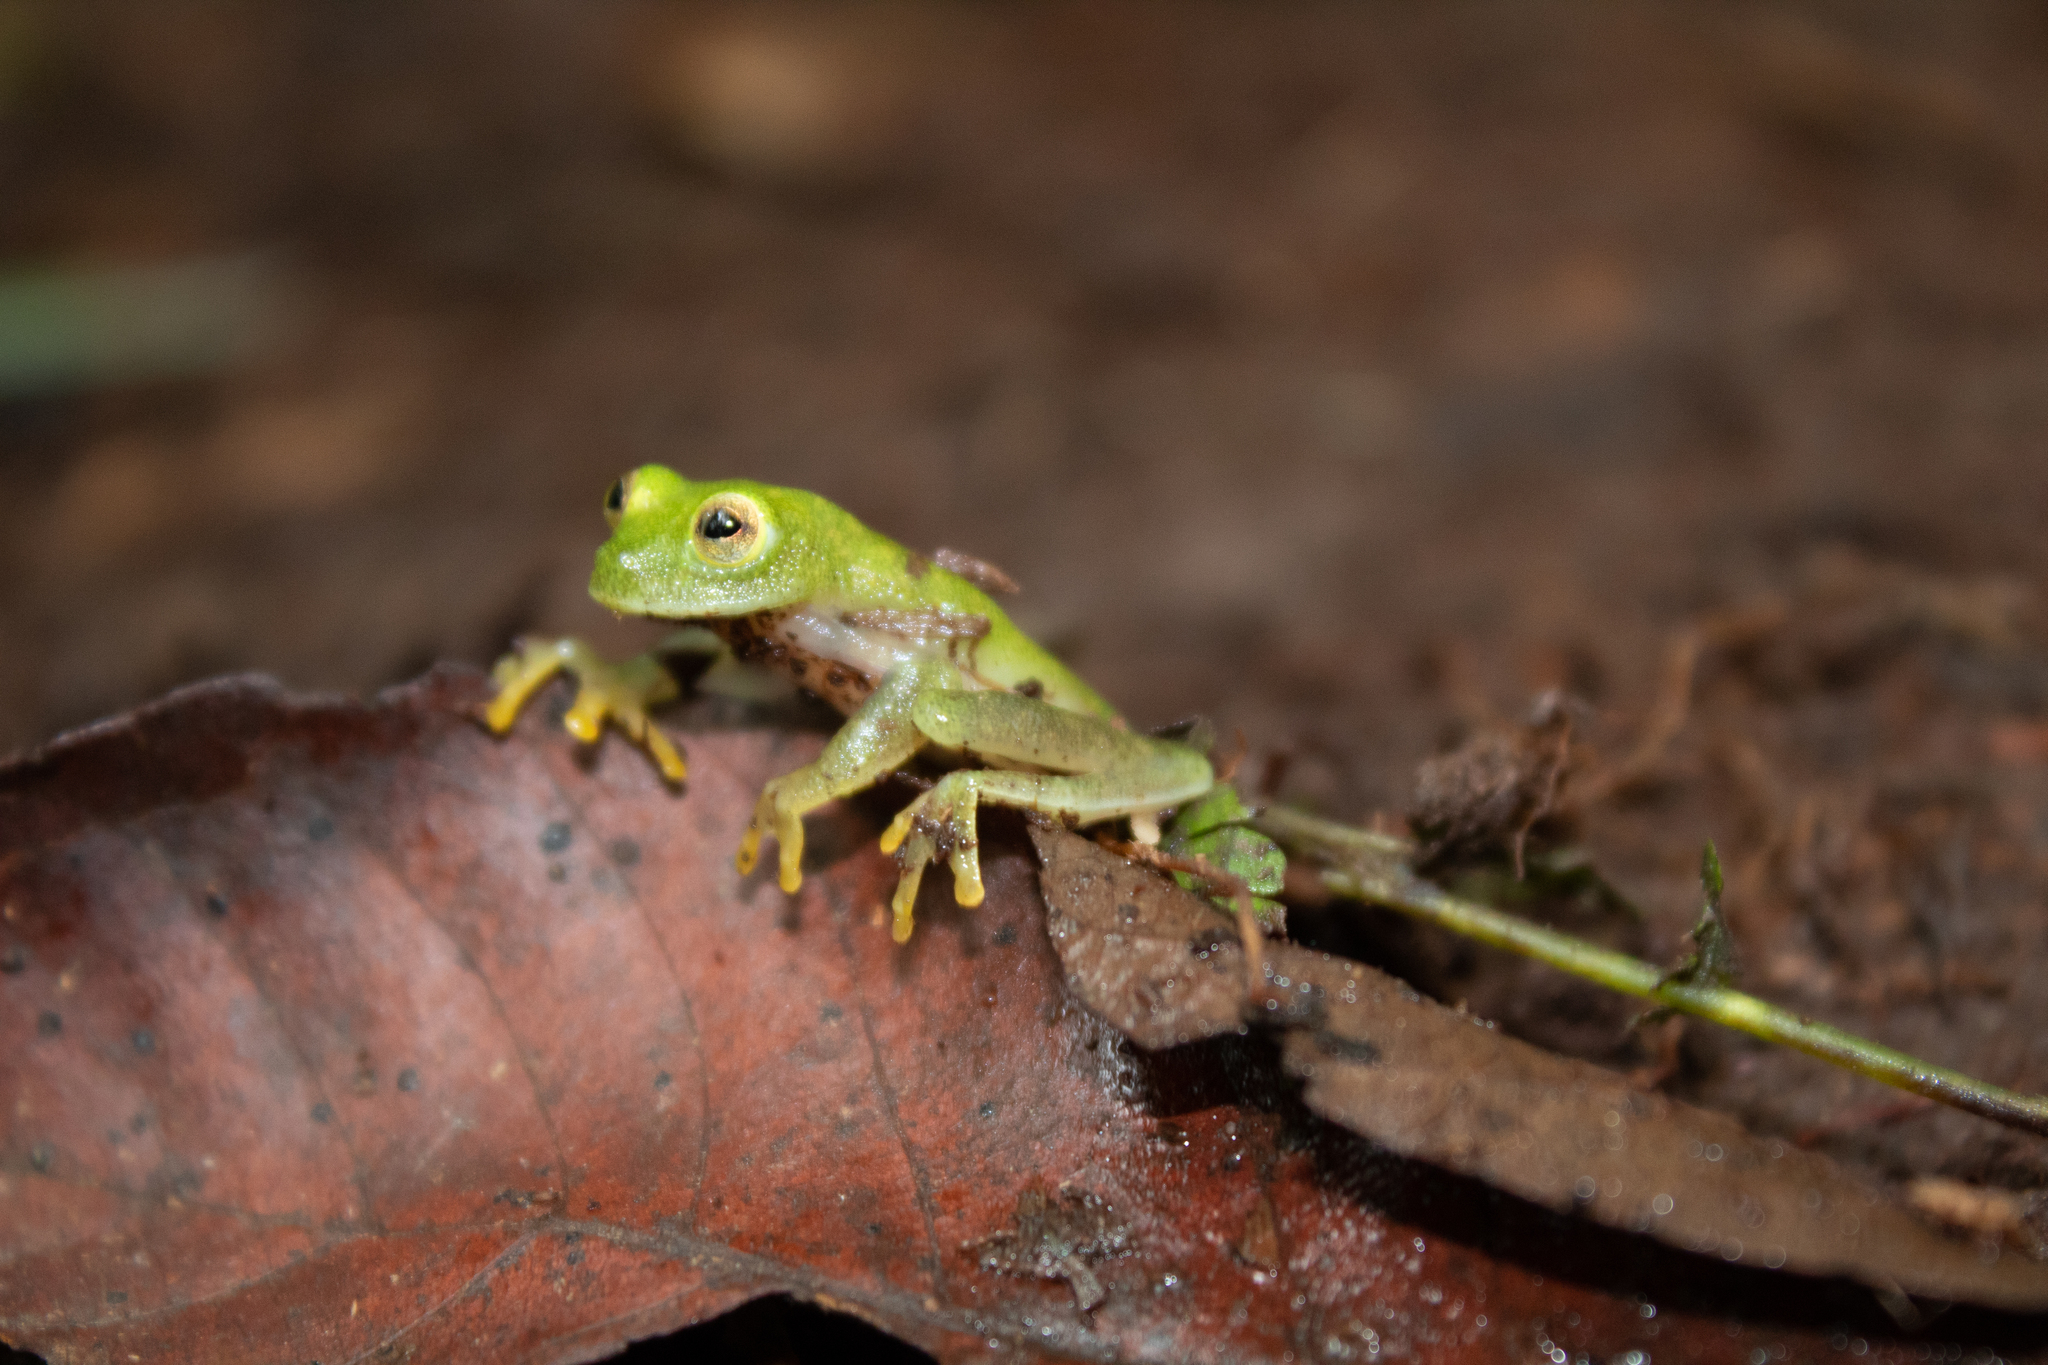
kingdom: Animalia
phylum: Chordata
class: Amphibia
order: Anura
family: Centrolenidae
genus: Hyalinobatrachium
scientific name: Hyalinobatrachium
